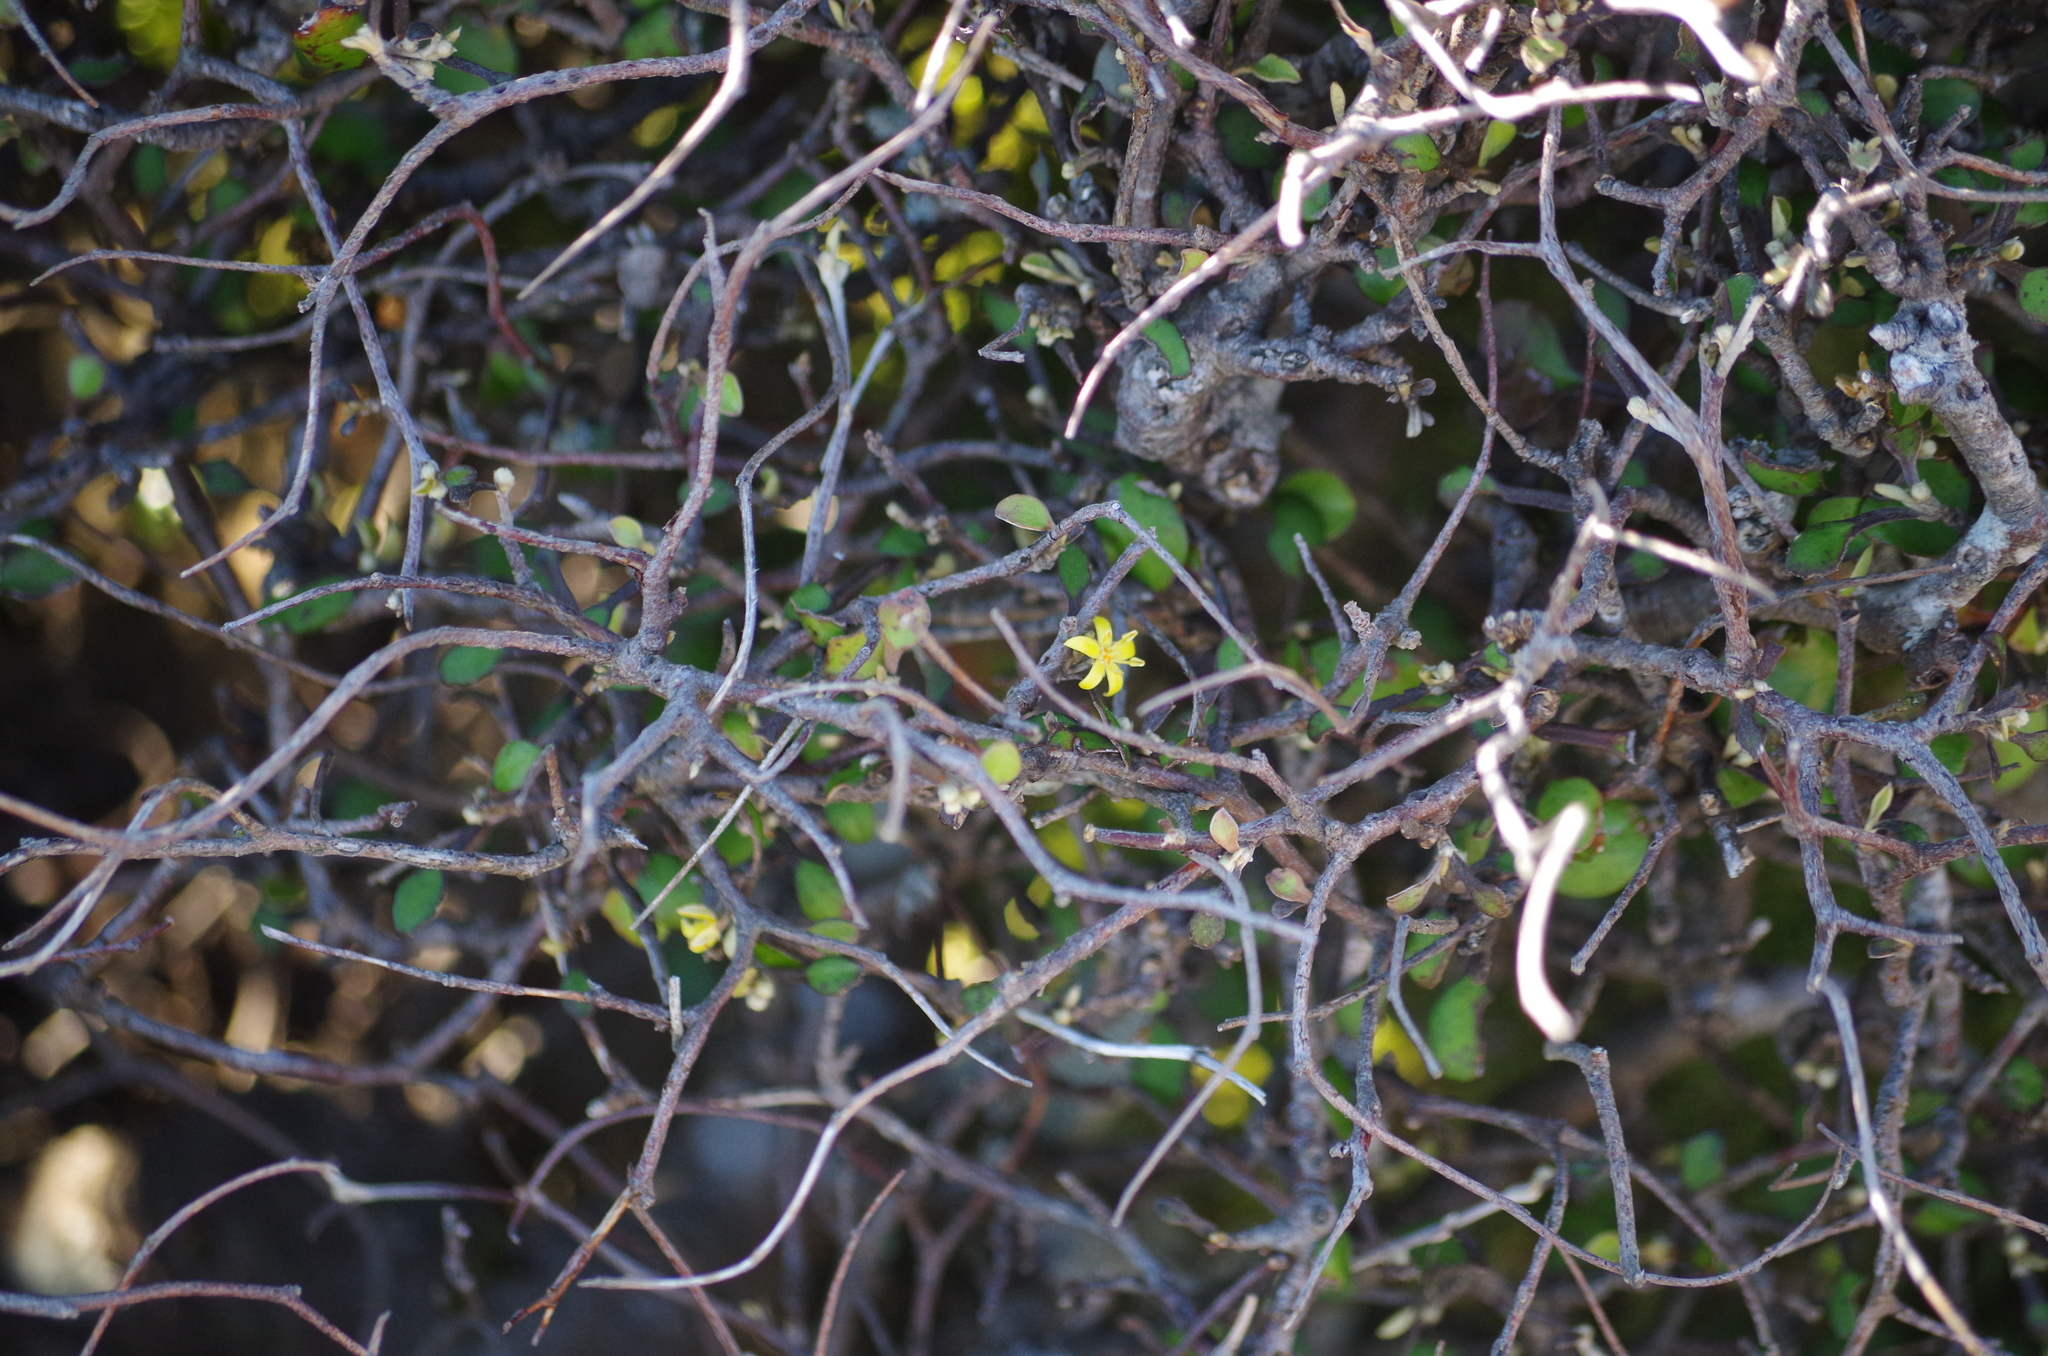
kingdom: Plantae
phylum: Tracheophyta
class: Magnoliopsida
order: Asterales
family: Argophyllaceae
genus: Corokia
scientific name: Corokia cotoneaster
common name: Wire nettingbush
